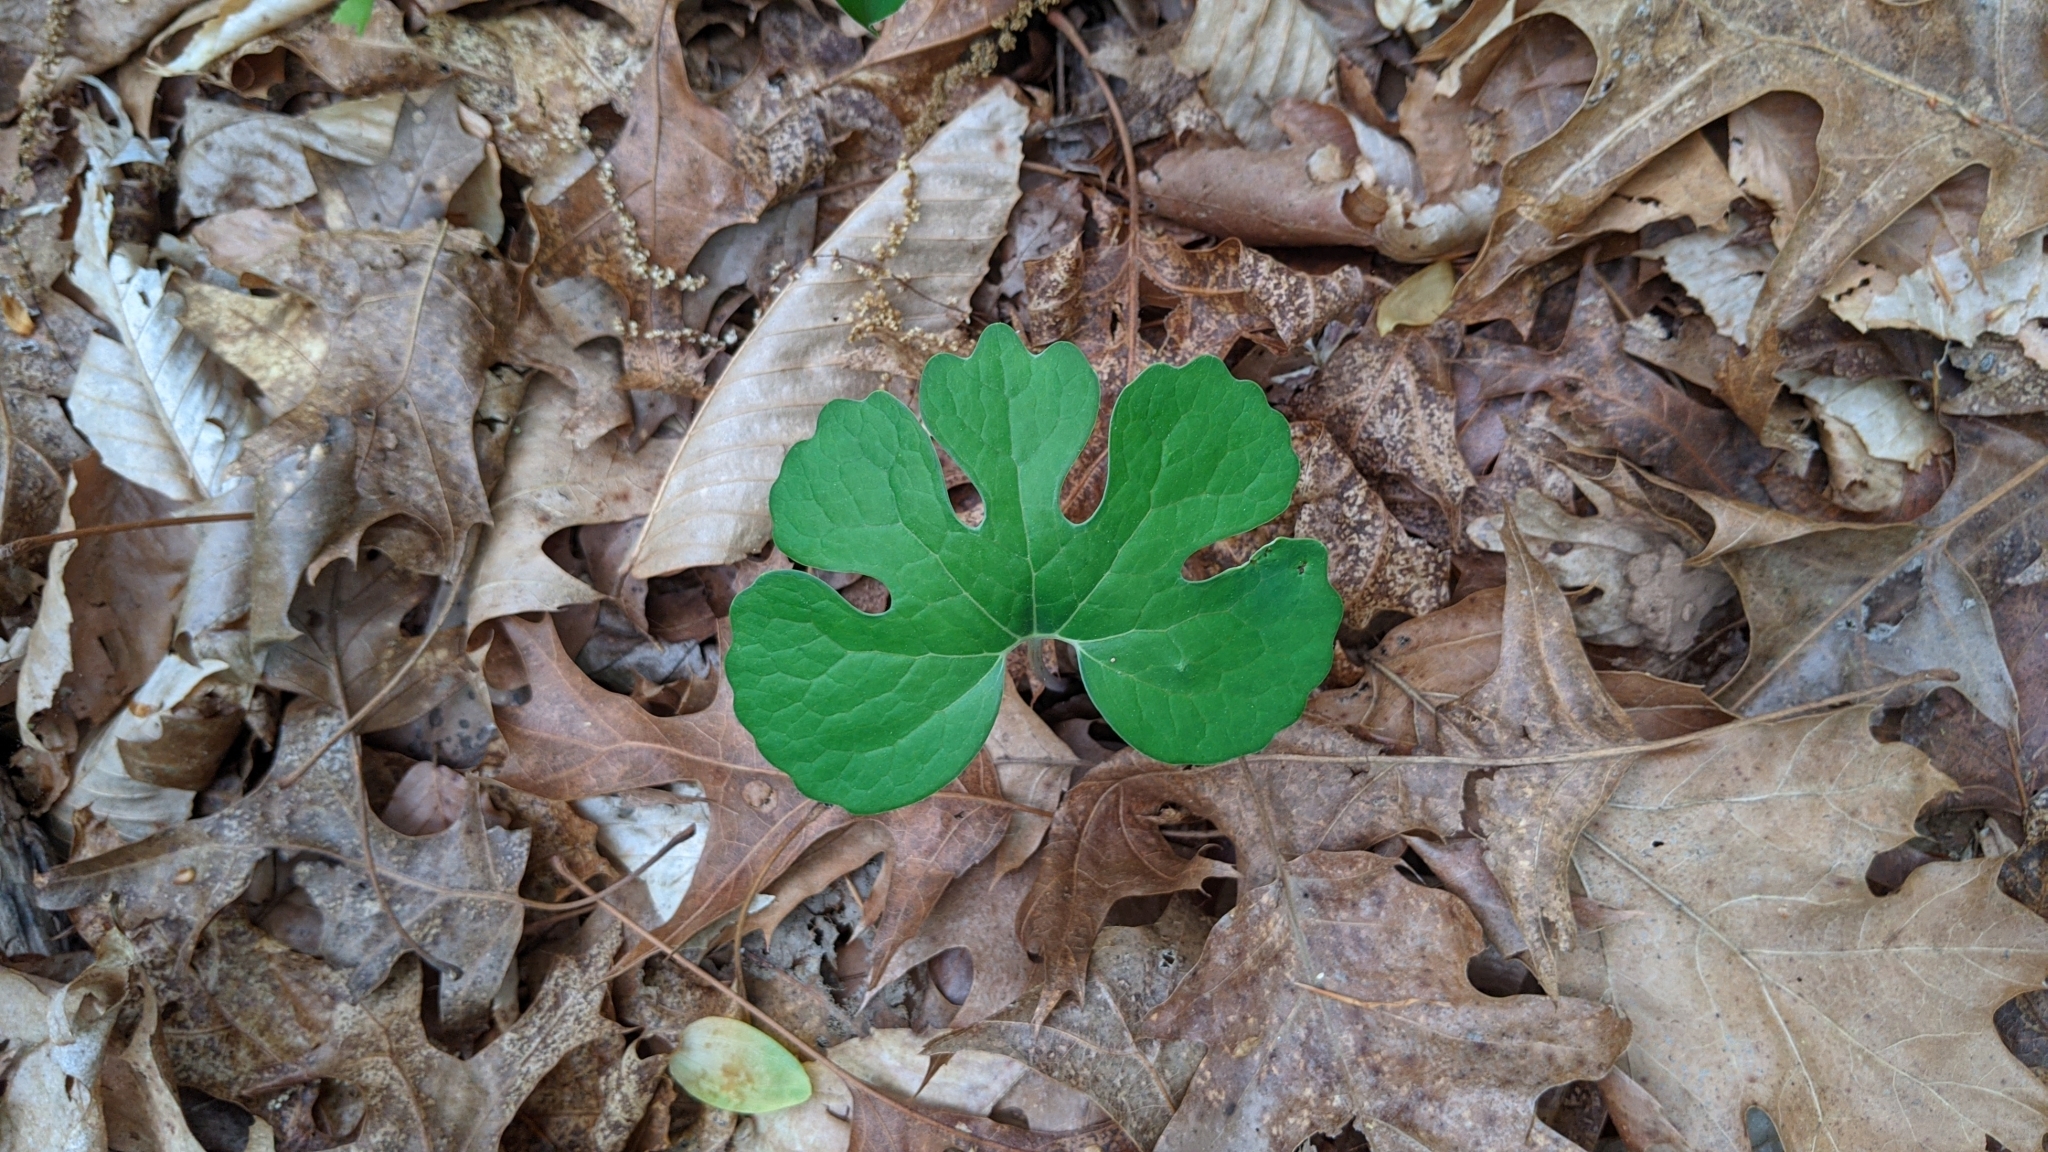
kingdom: Plantae
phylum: Tracheophyta
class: Magnoliopsida
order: Ranunculales
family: Papaveraceae
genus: Sanguinaria
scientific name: Sanguinaria canadensis
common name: Bloodroot
